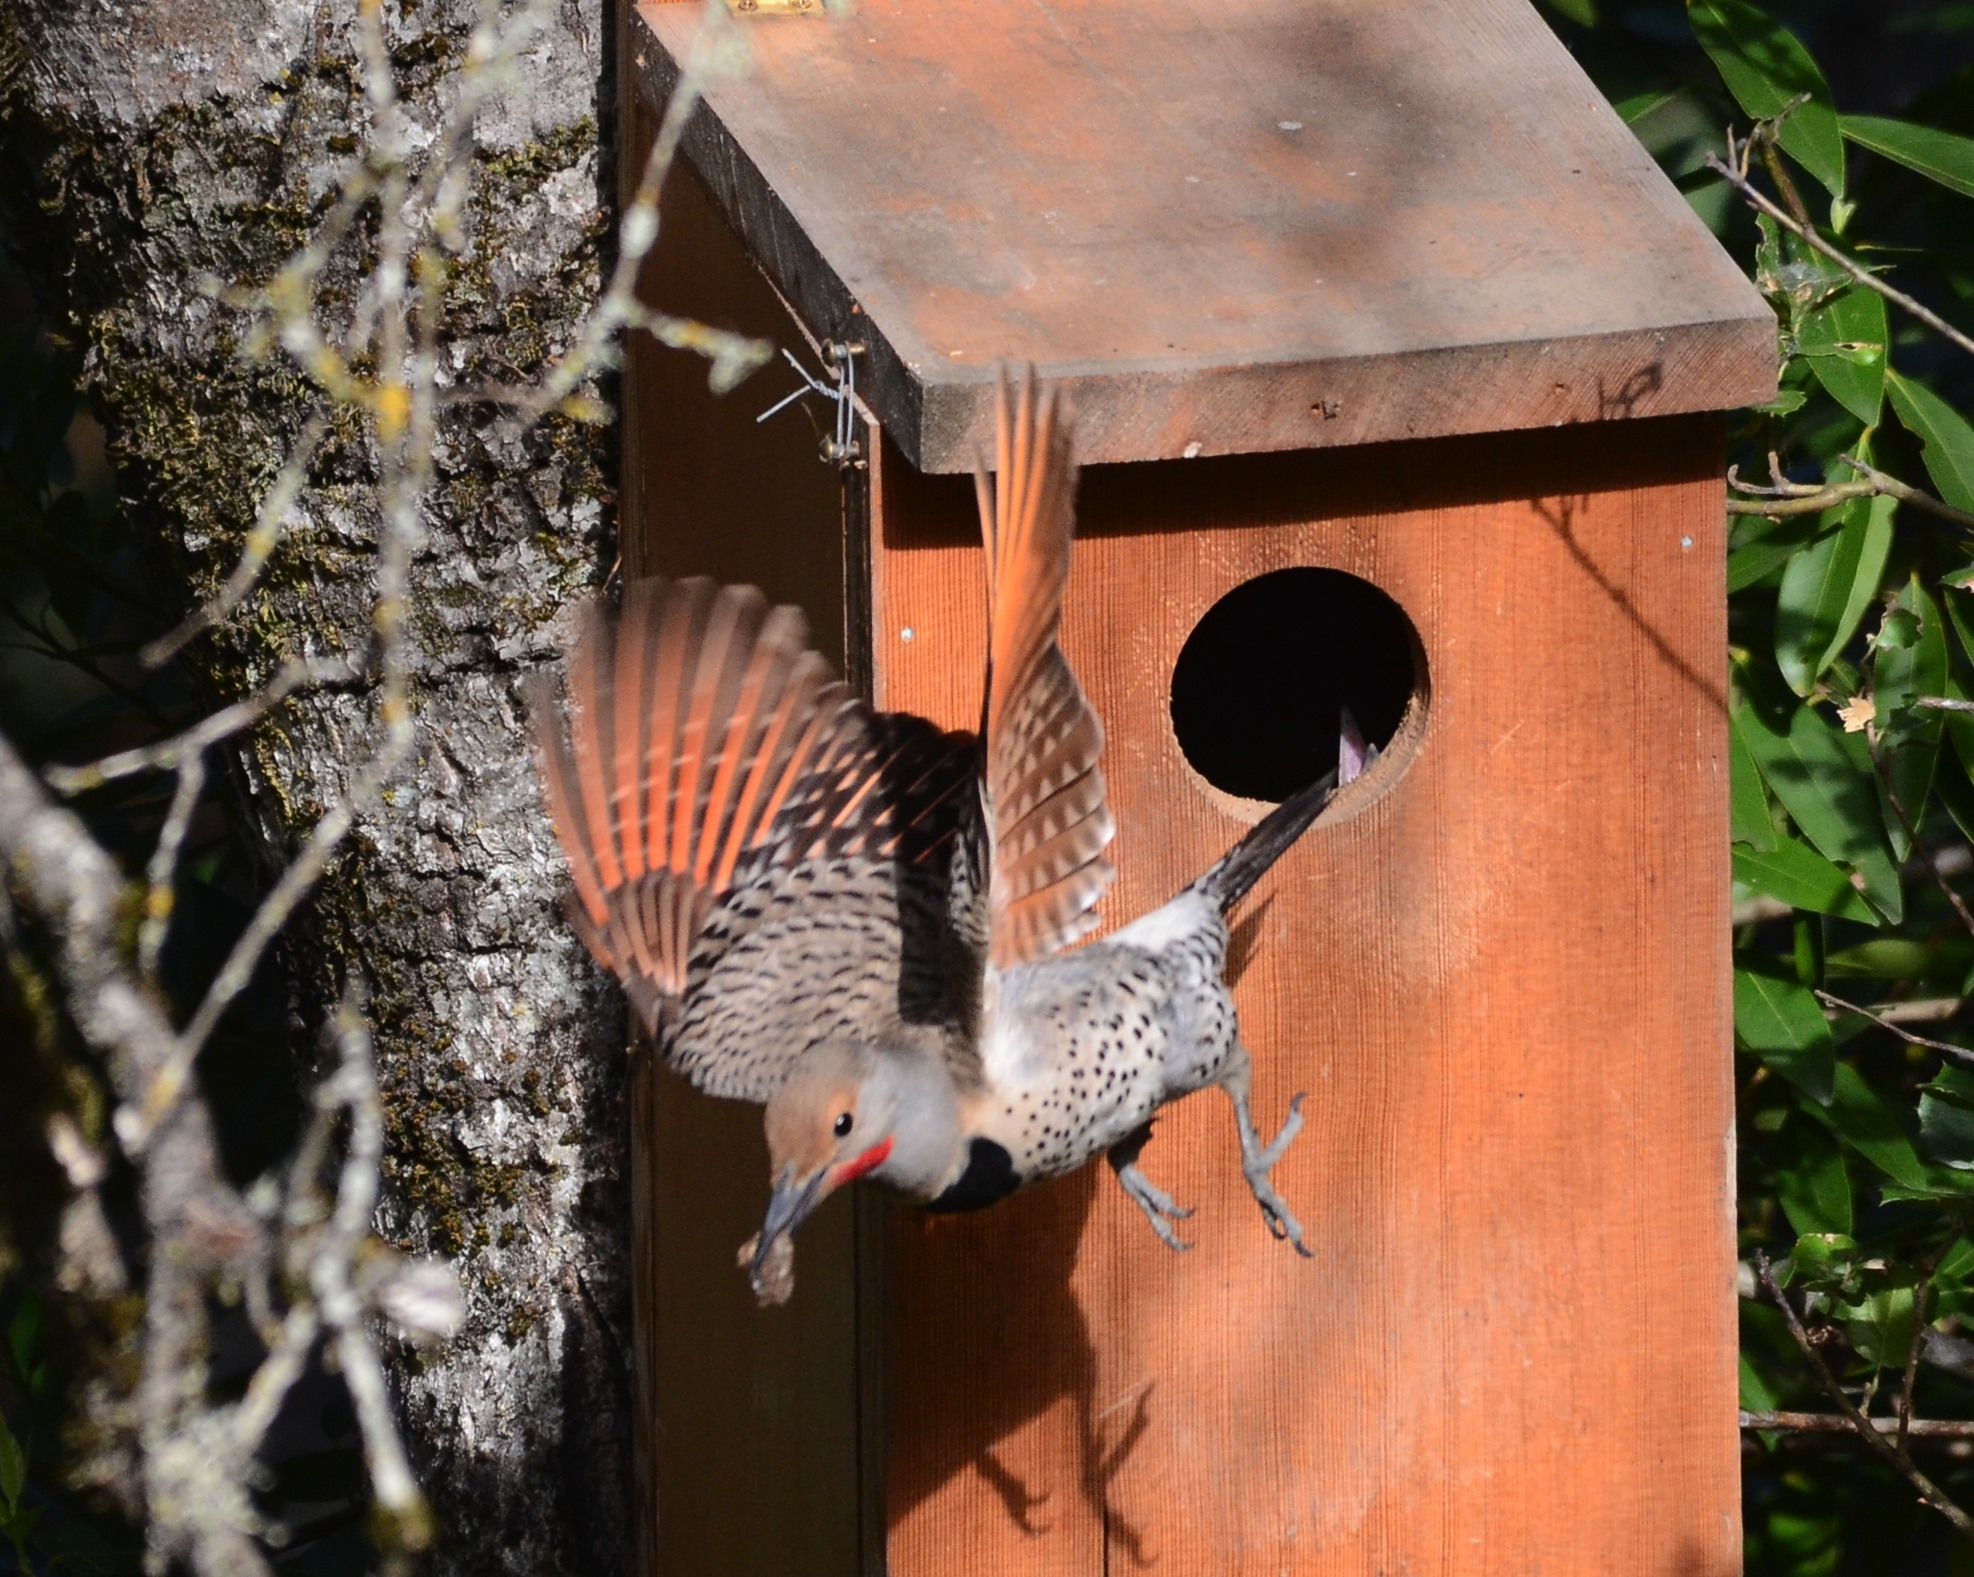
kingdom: Animalia
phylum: Chordata
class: Aves
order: Piciformes
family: Picidae
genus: Colaptes
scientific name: Colaptes auratus
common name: Northern flicker
